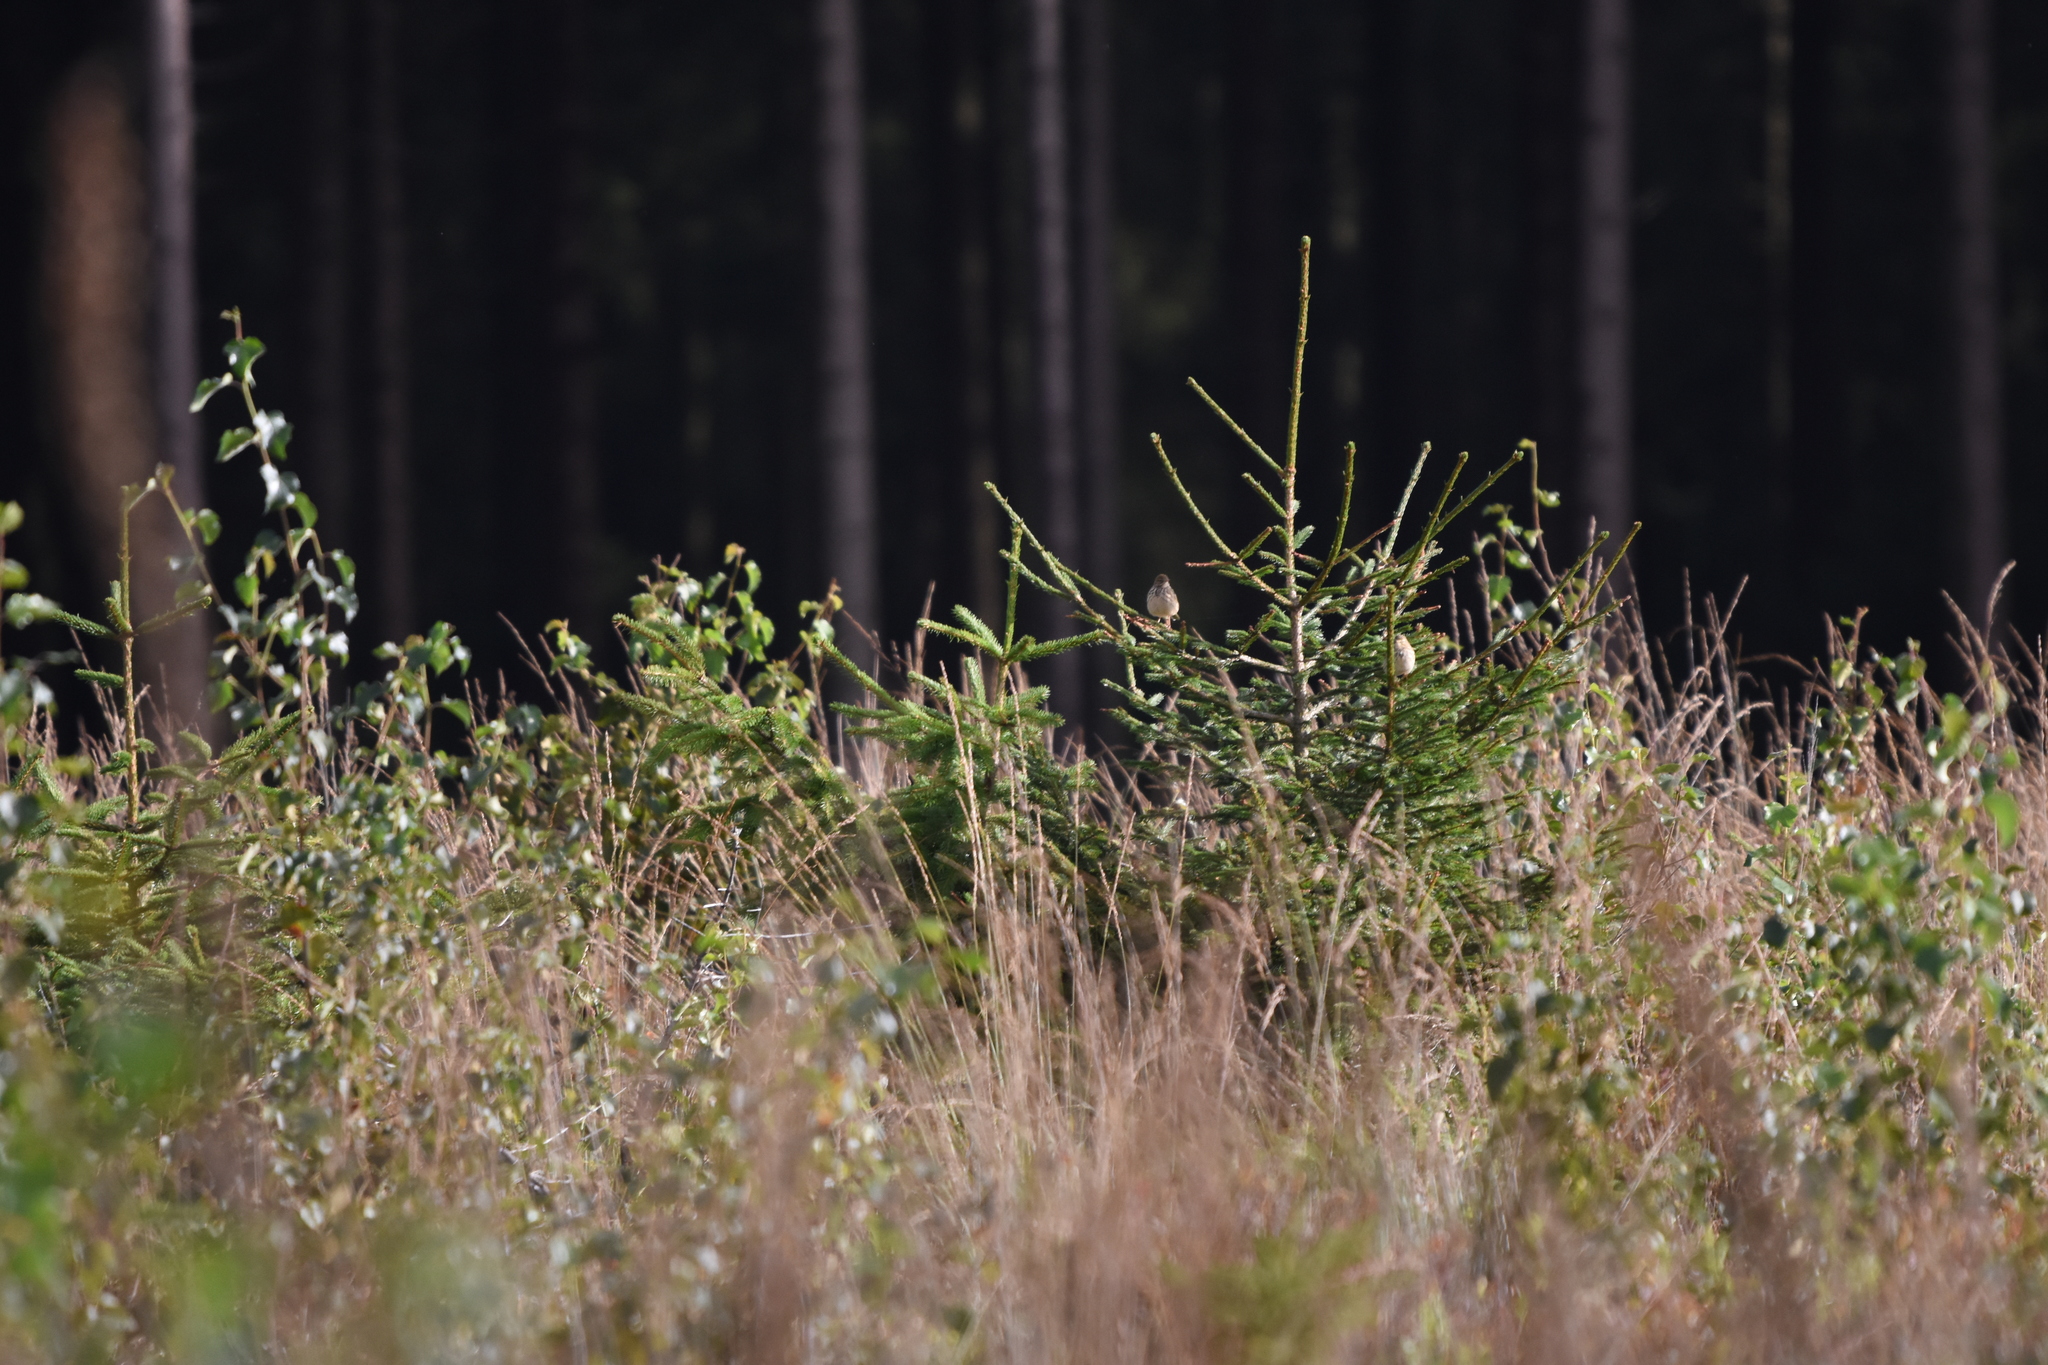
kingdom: Animalia
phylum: Chordata
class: Aves
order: Passeriformes
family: Motacillidae
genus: Anthus
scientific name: Anthus trivialis
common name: Tree pipit
